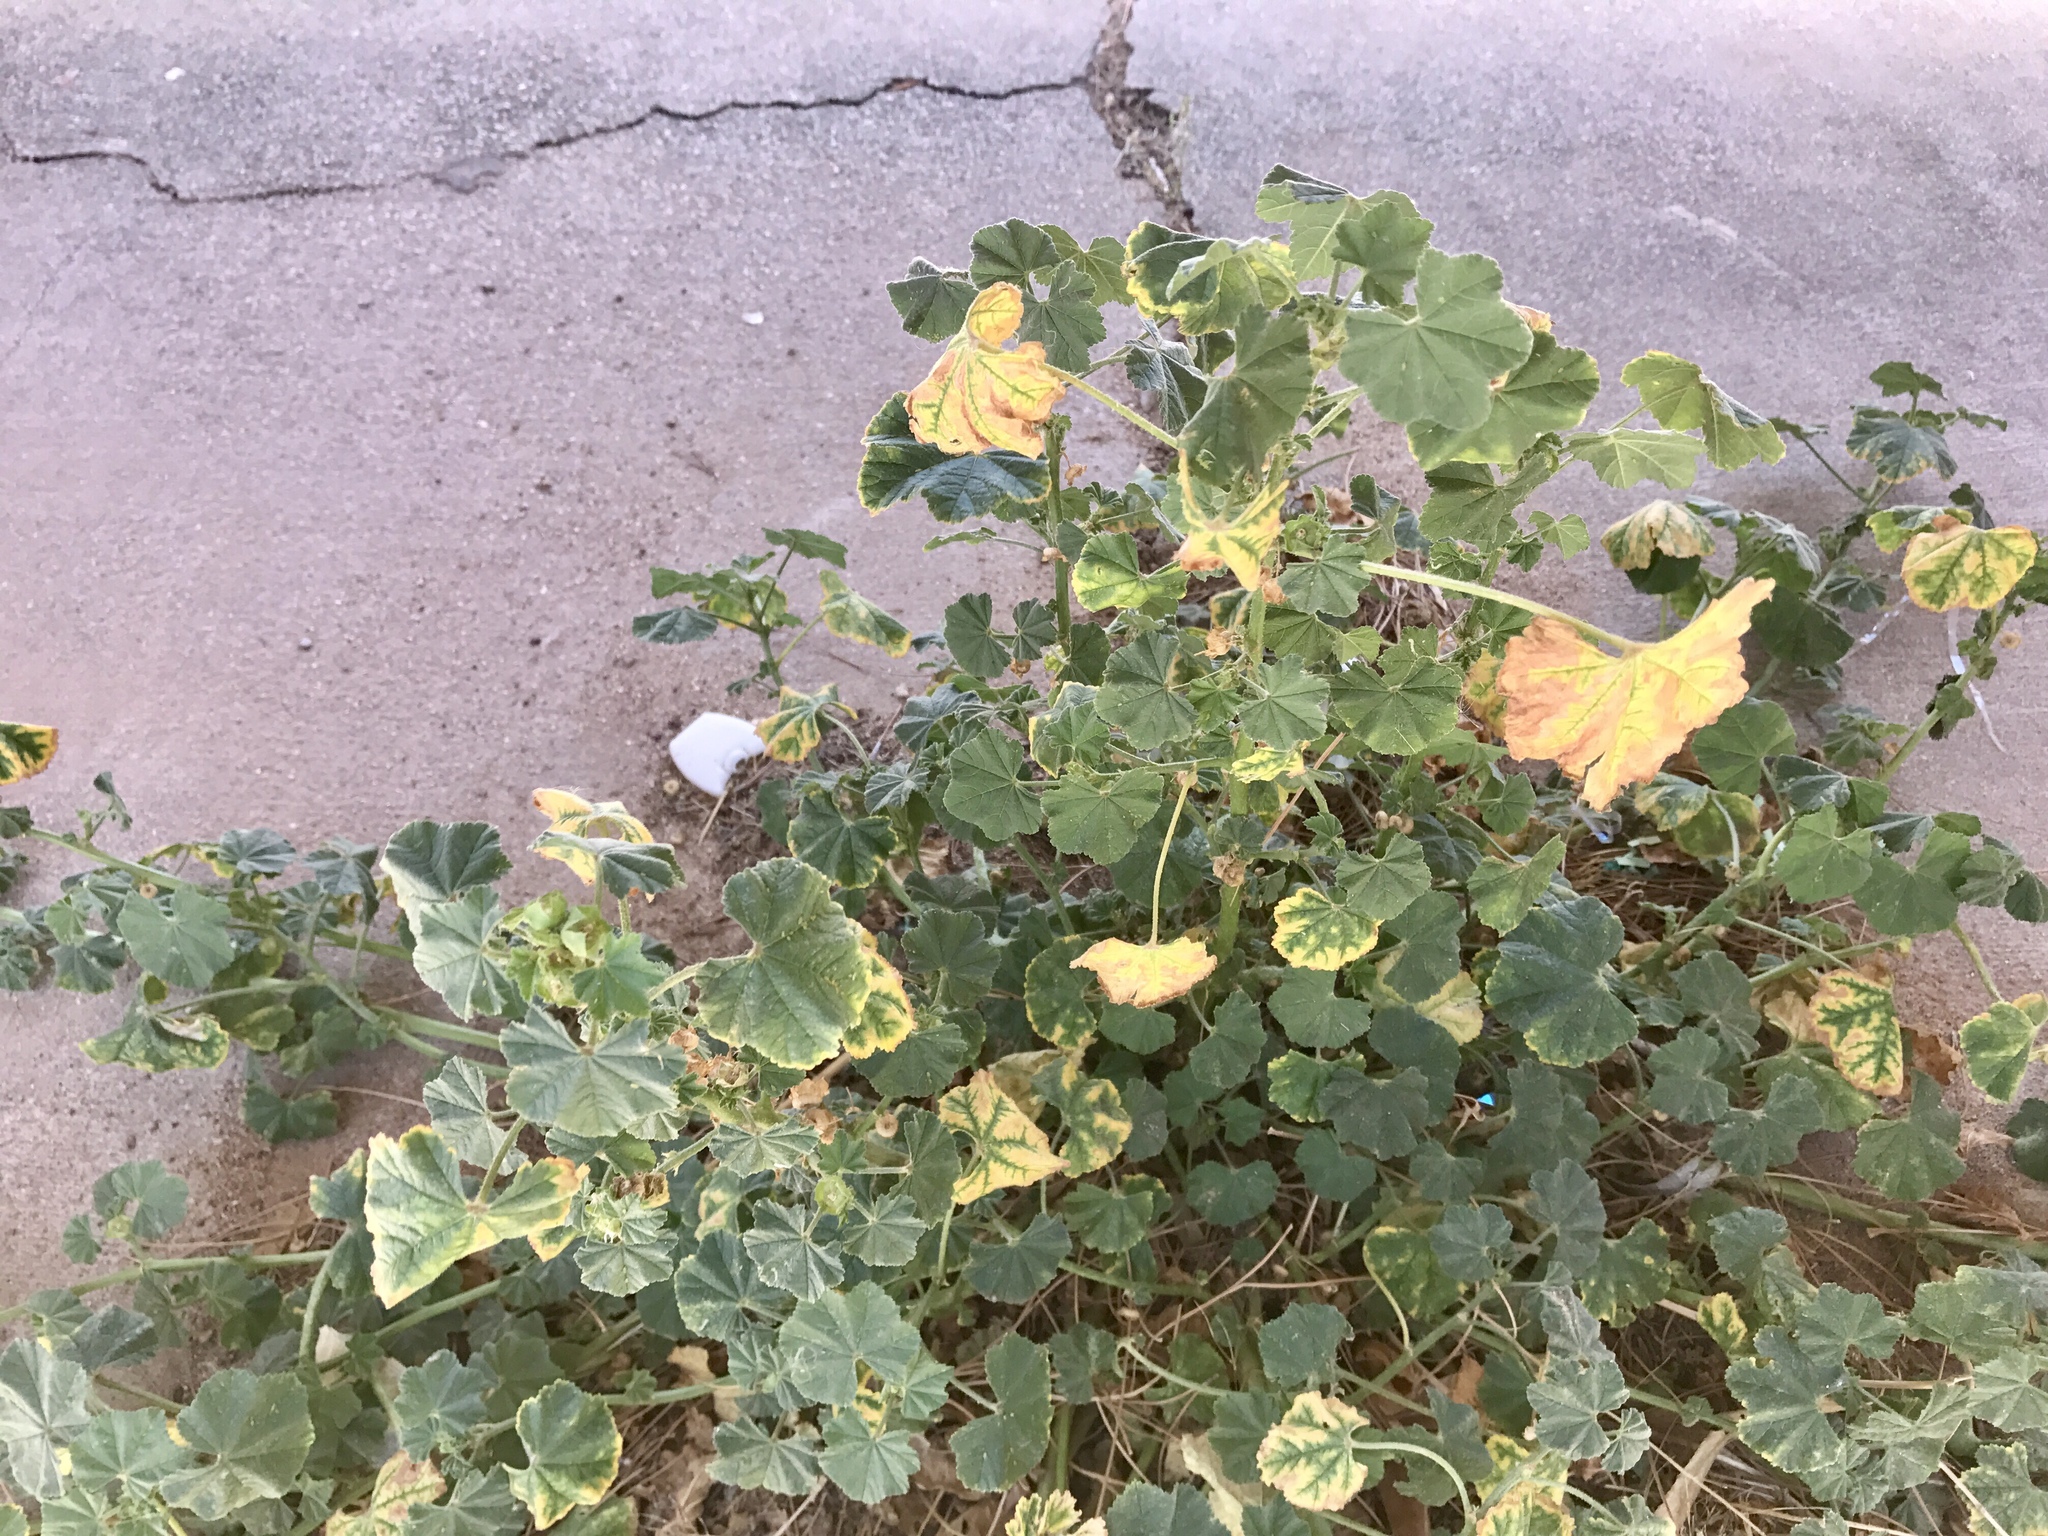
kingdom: Plantae
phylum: Tracheophyta
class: Magnoliopsida
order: Malvales
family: Malvaceae
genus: Malva
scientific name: Malva parviflora
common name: Least mallow
